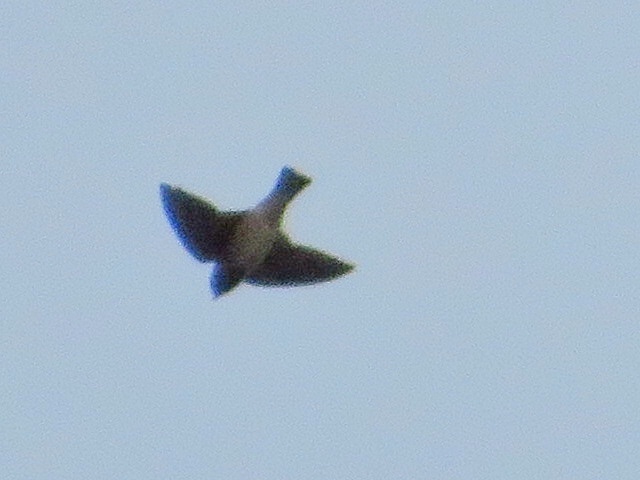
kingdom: Animalia
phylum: Chordata
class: Aves
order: Passeriformes
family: Hirundinidae
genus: Petrochelidon
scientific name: Petrochelidon pyrrhonota
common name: American cliff swallow
